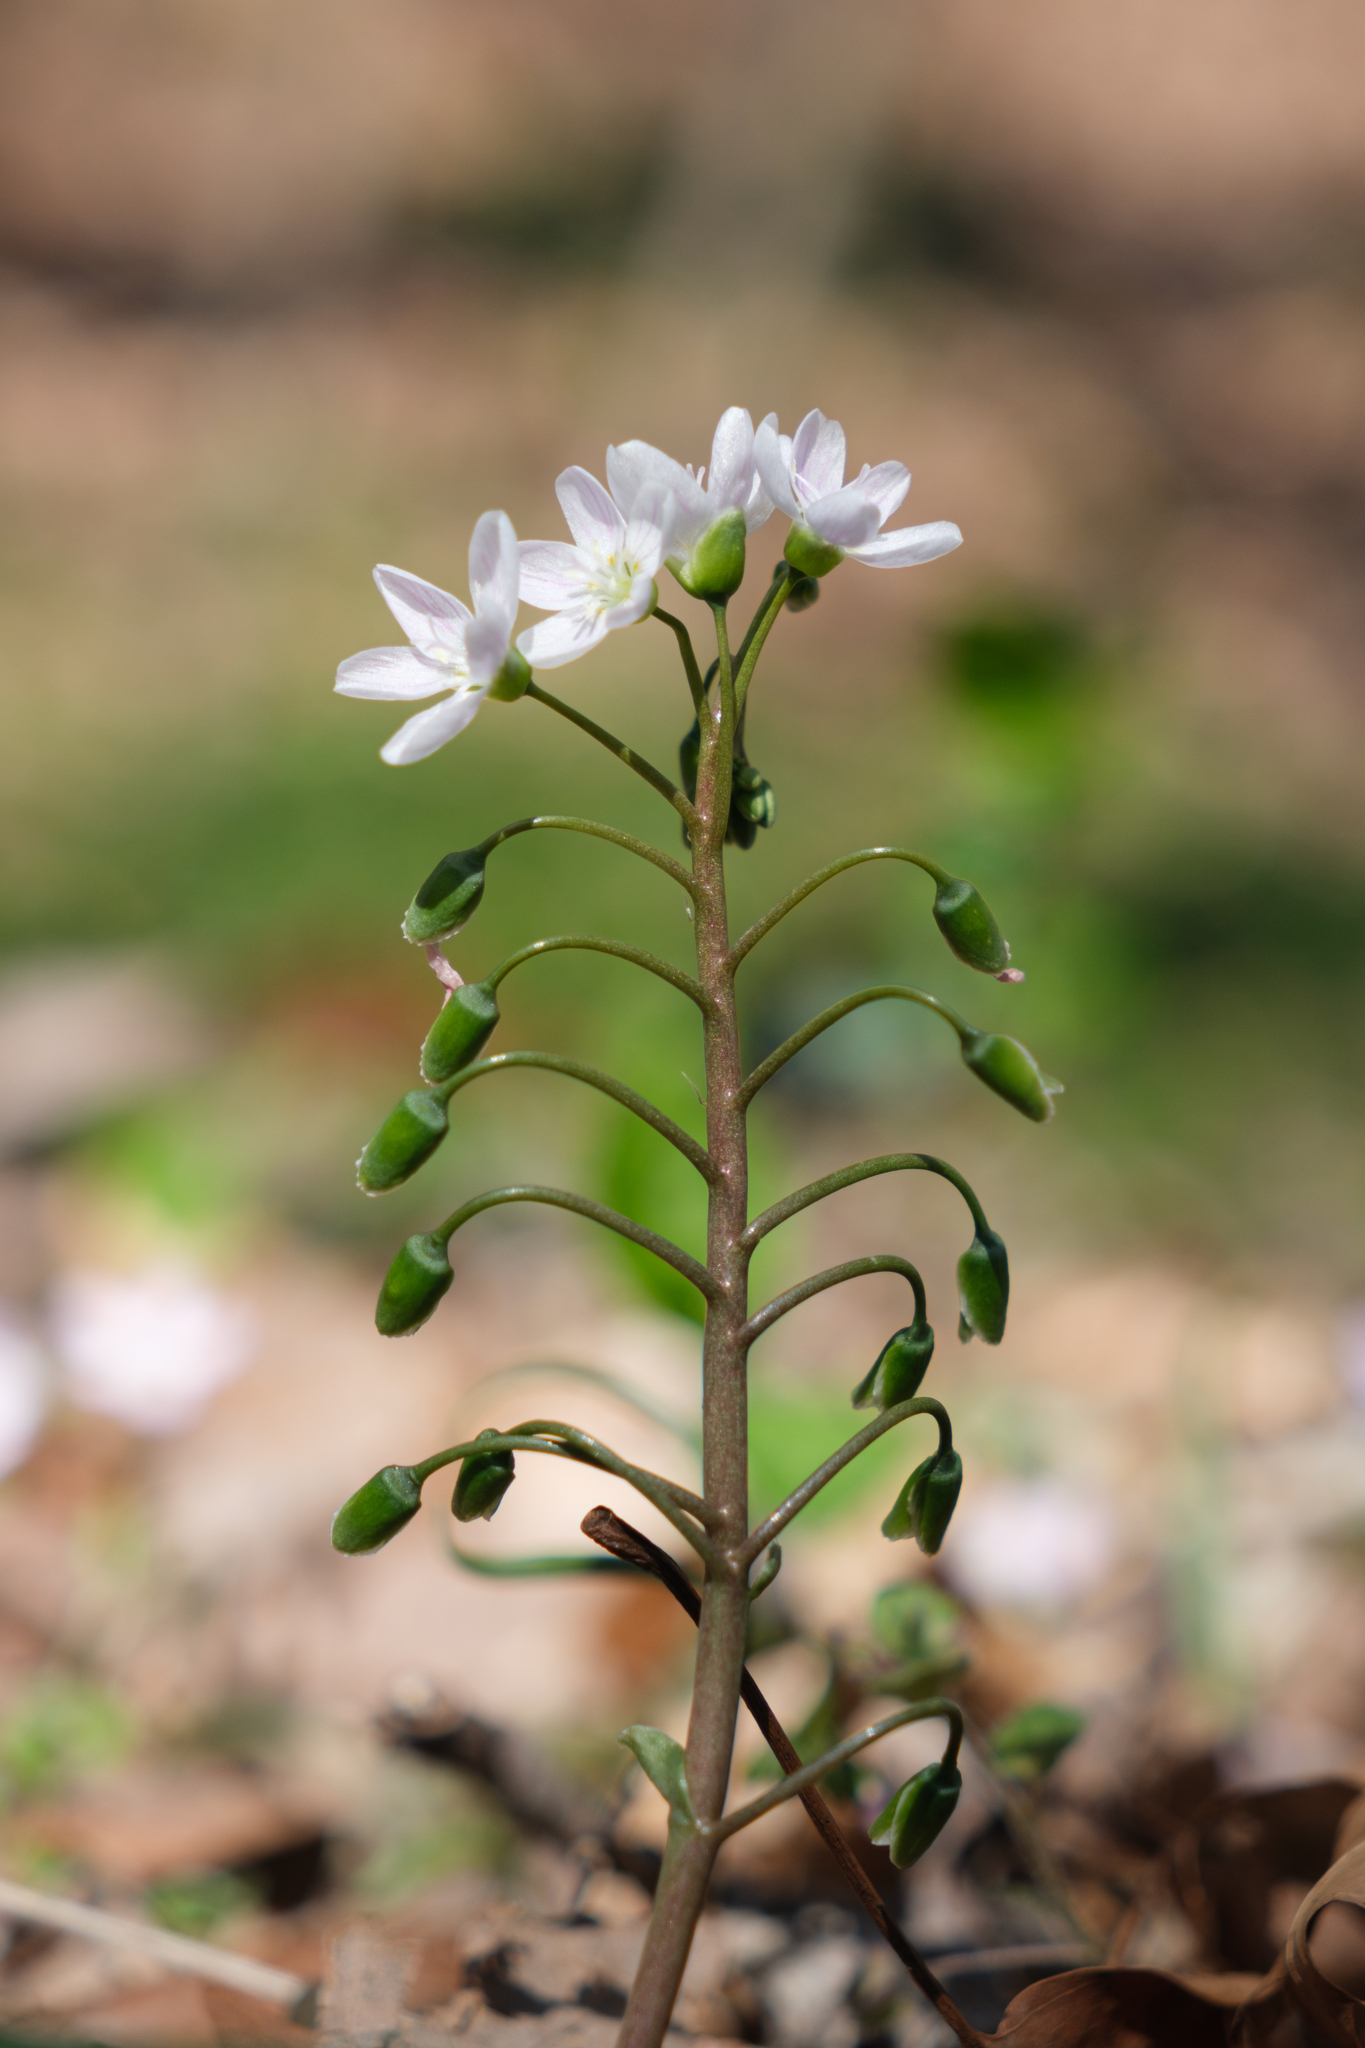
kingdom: Plantae
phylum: Tracheophyta
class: Magnoliopsida
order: Caryophyllales
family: Montiaceae
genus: Claytonia
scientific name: Claytonia virginica
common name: Virginia springbeauty
